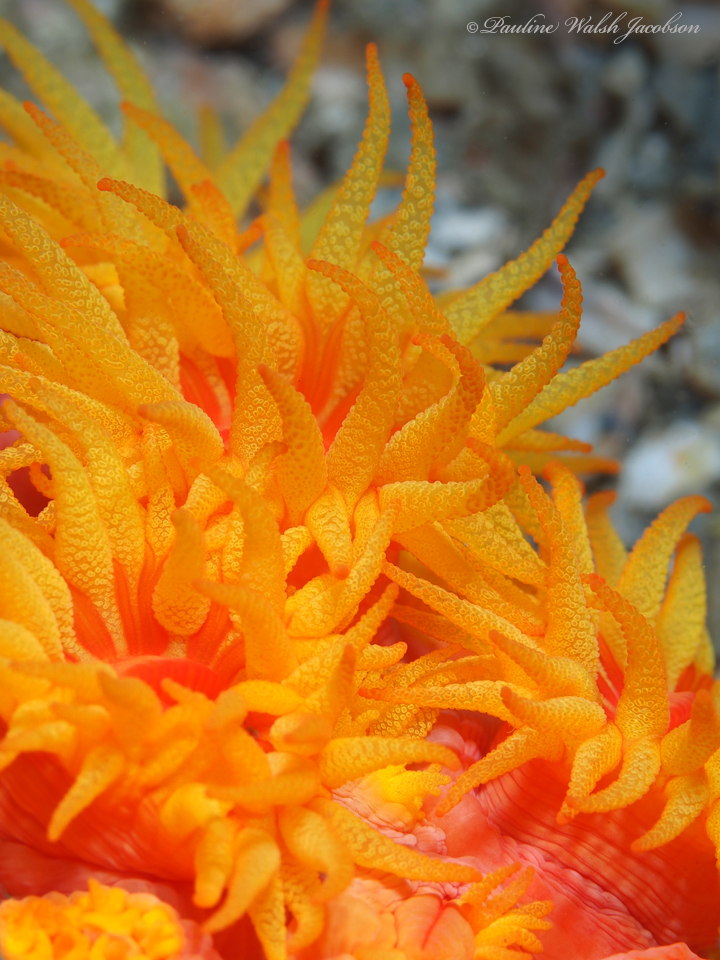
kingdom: Animalia
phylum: Cnidaria
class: Anthozoa
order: Scleractinia
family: Dendrophylliidae
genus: Tubastraea
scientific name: Tubastraea coccinea
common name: Orange cup coral
